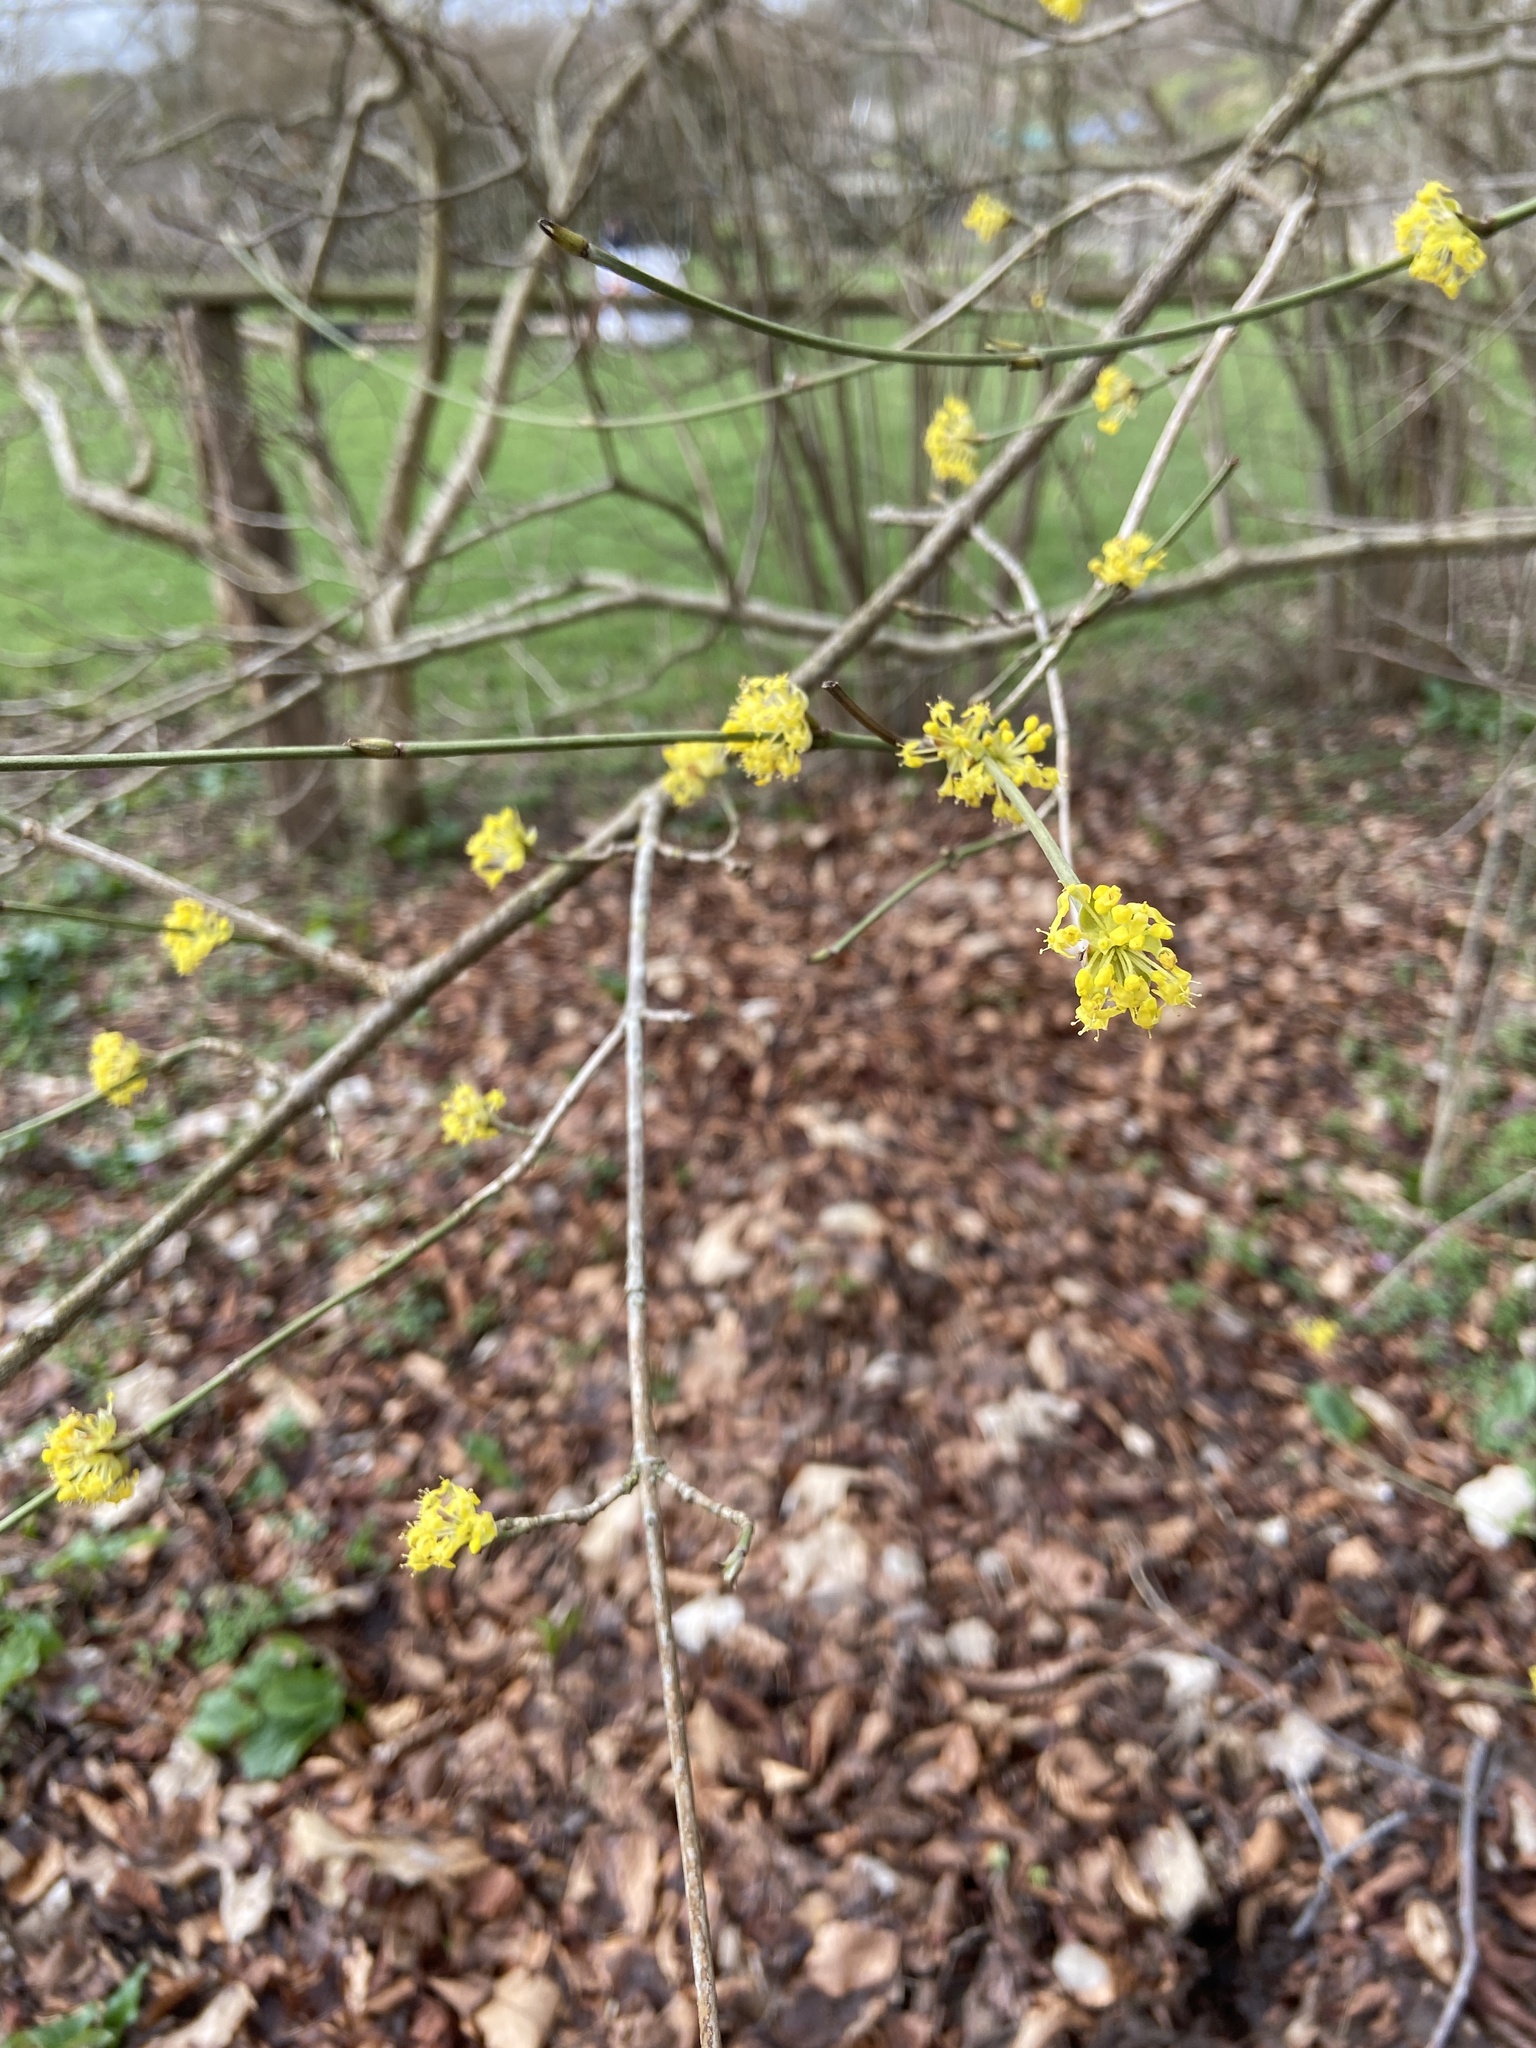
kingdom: Plantae
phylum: Tracheophyta
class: Magnoliopsida
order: Cornales
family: Cornaceae
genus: Cornus
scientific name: Cornus mas
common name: Cornelian-cherry
